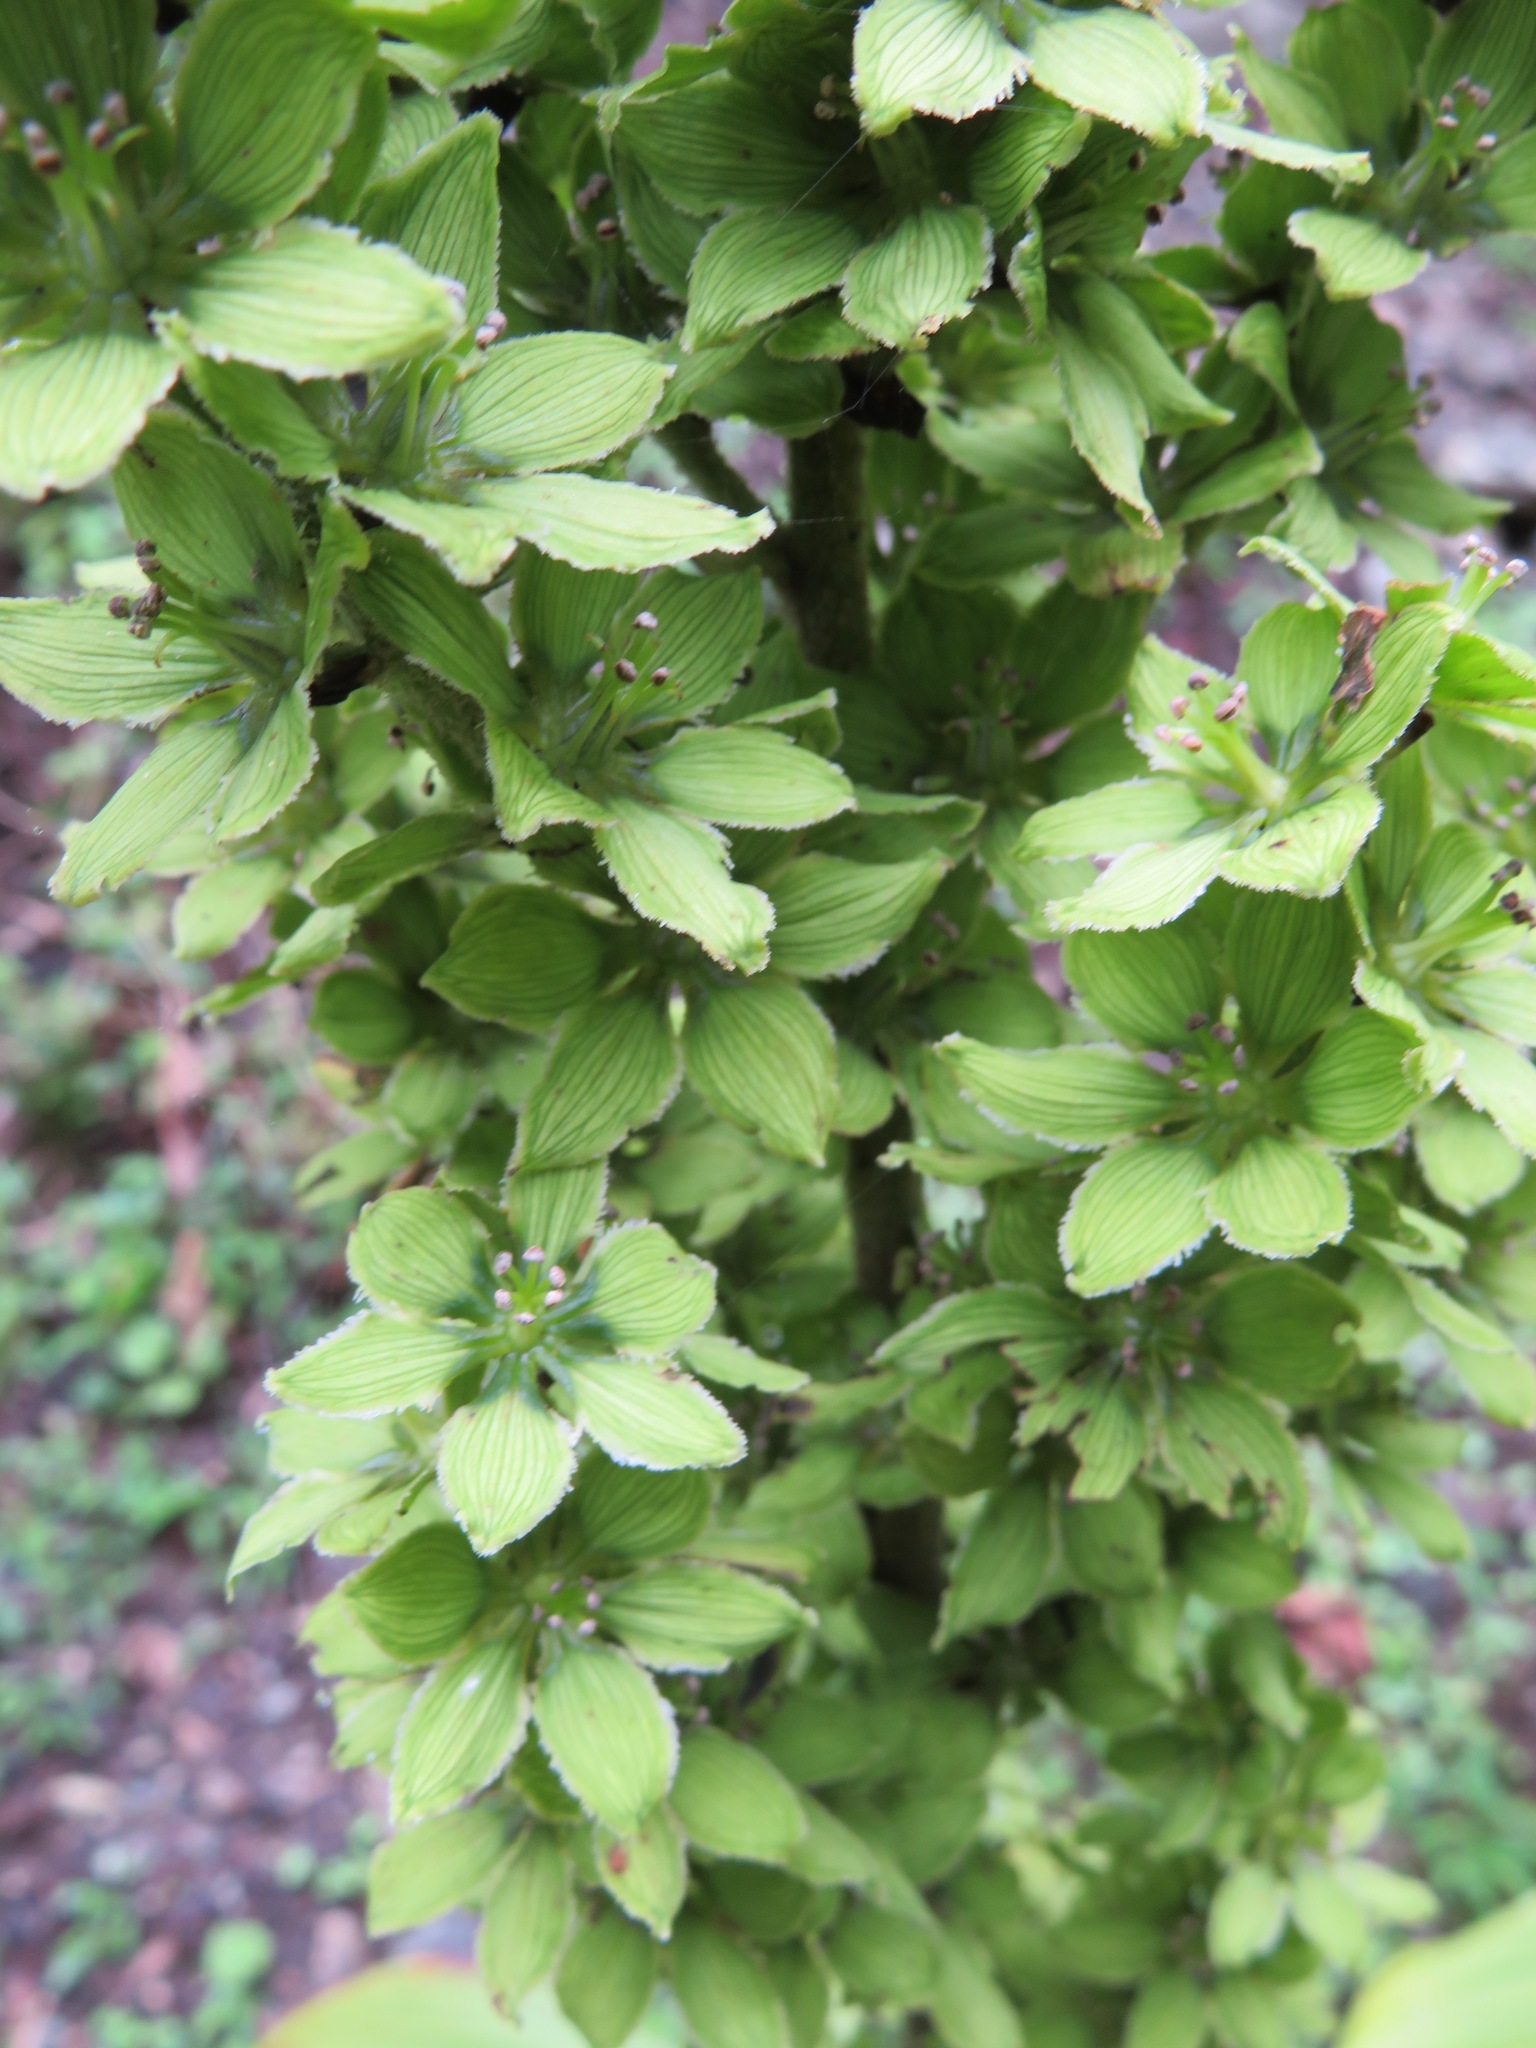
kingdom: Plantae
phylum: Tracheophyta
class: Liliopsida
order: Liliales
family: Melanthiaceae
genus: Veratrum
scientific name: Veratrum oxysepalum
